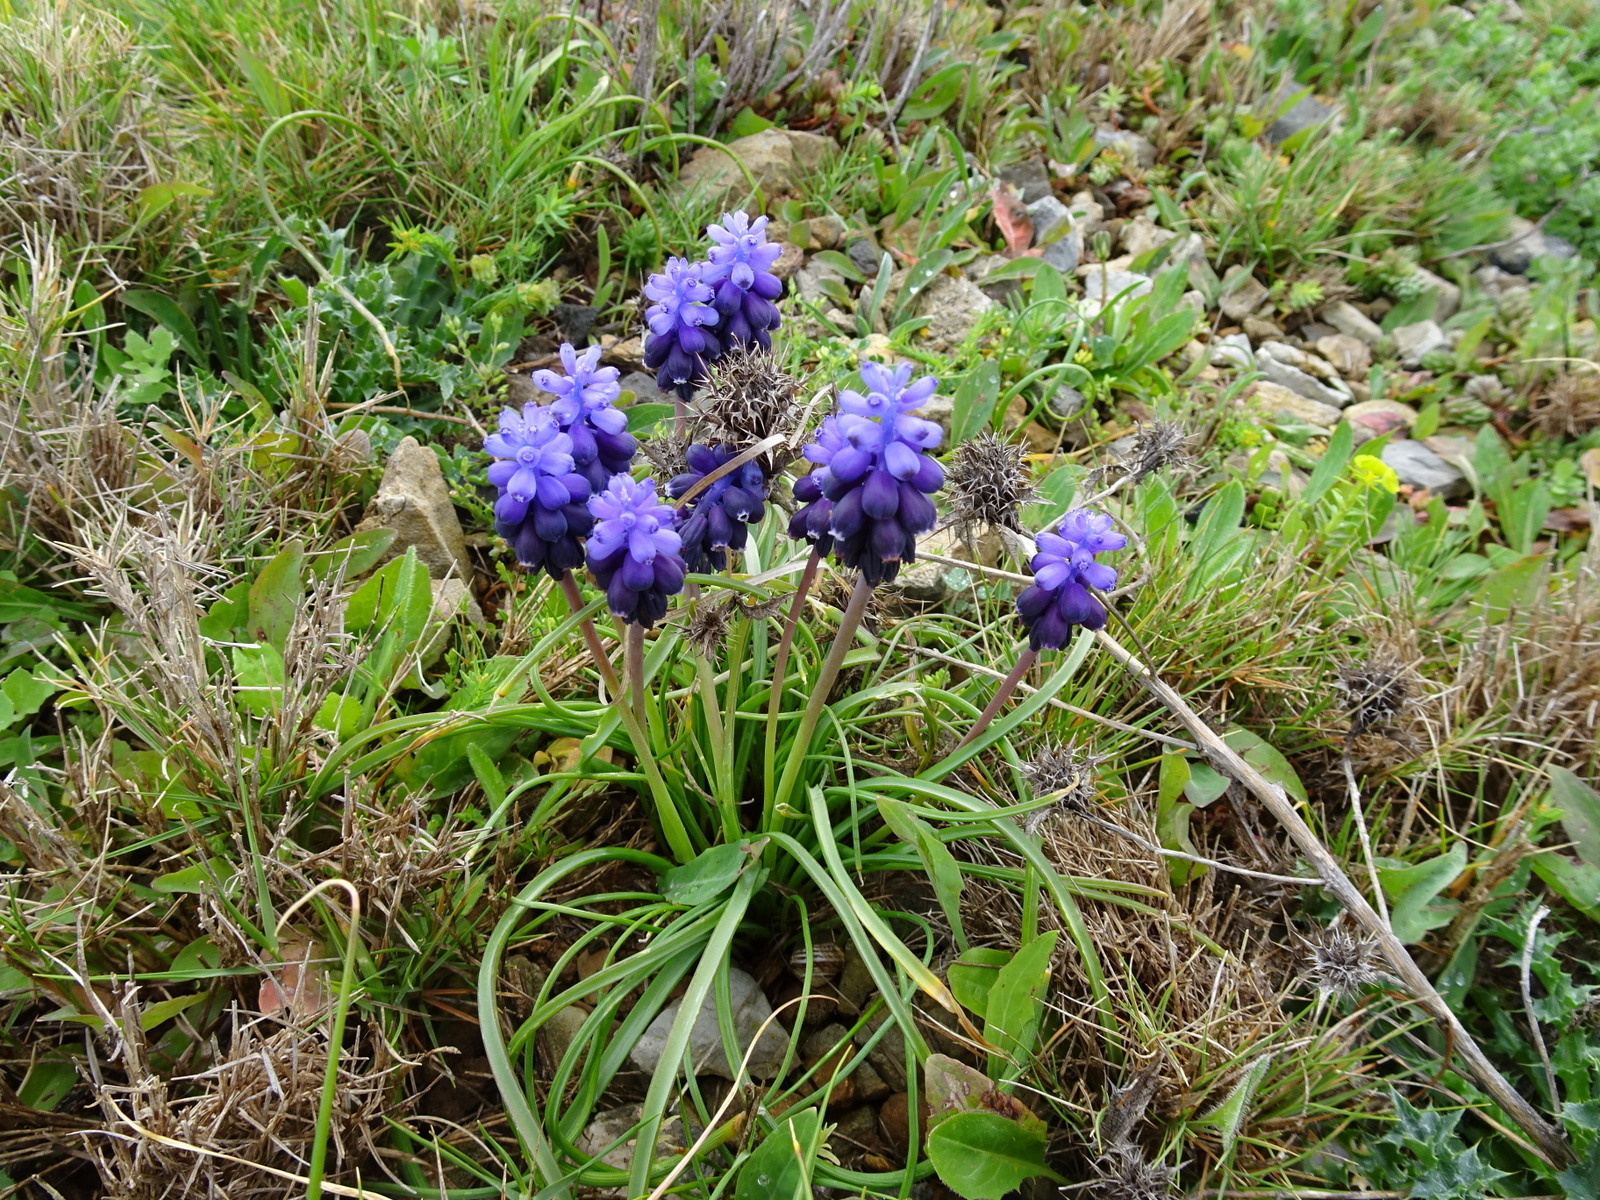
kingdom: Plantae
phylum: Tracheophyta
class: Liliopsida
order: Asparagales
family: Asparagaceae
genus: Muscari
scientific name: Muscari neglectum
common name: Grape-hyacinth
